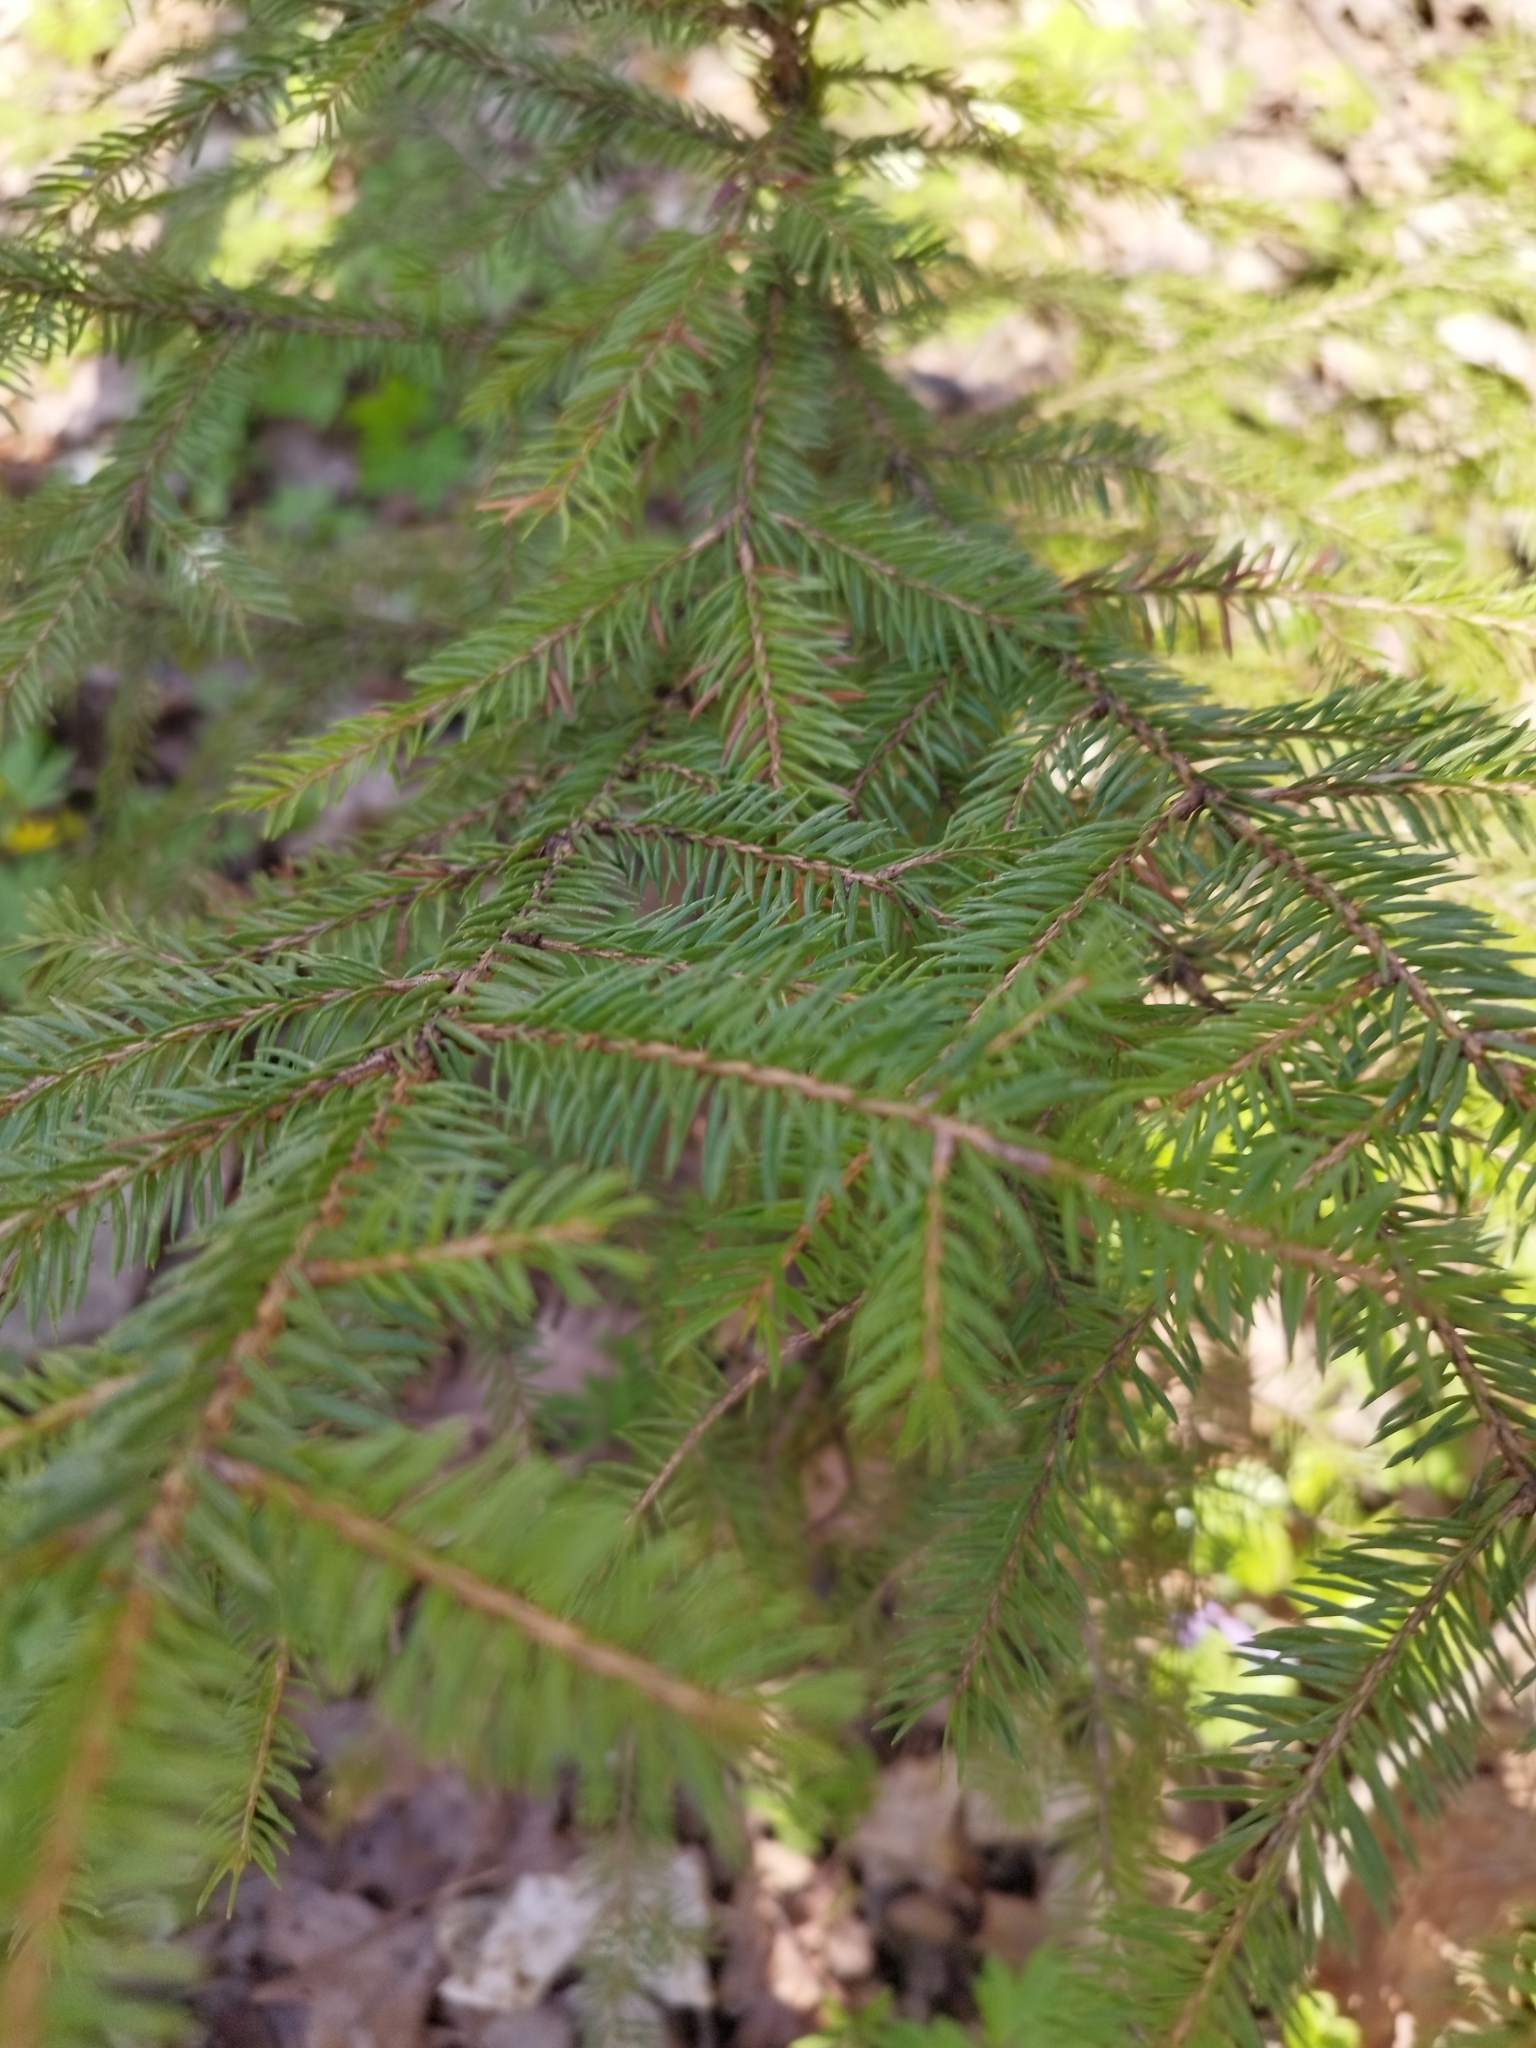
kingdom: Plantae
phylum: Tracheophyta
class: Pinopsida
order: Pinales
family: Pinaceae
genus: Picea
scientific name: Picea abies
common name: Norway spruce
